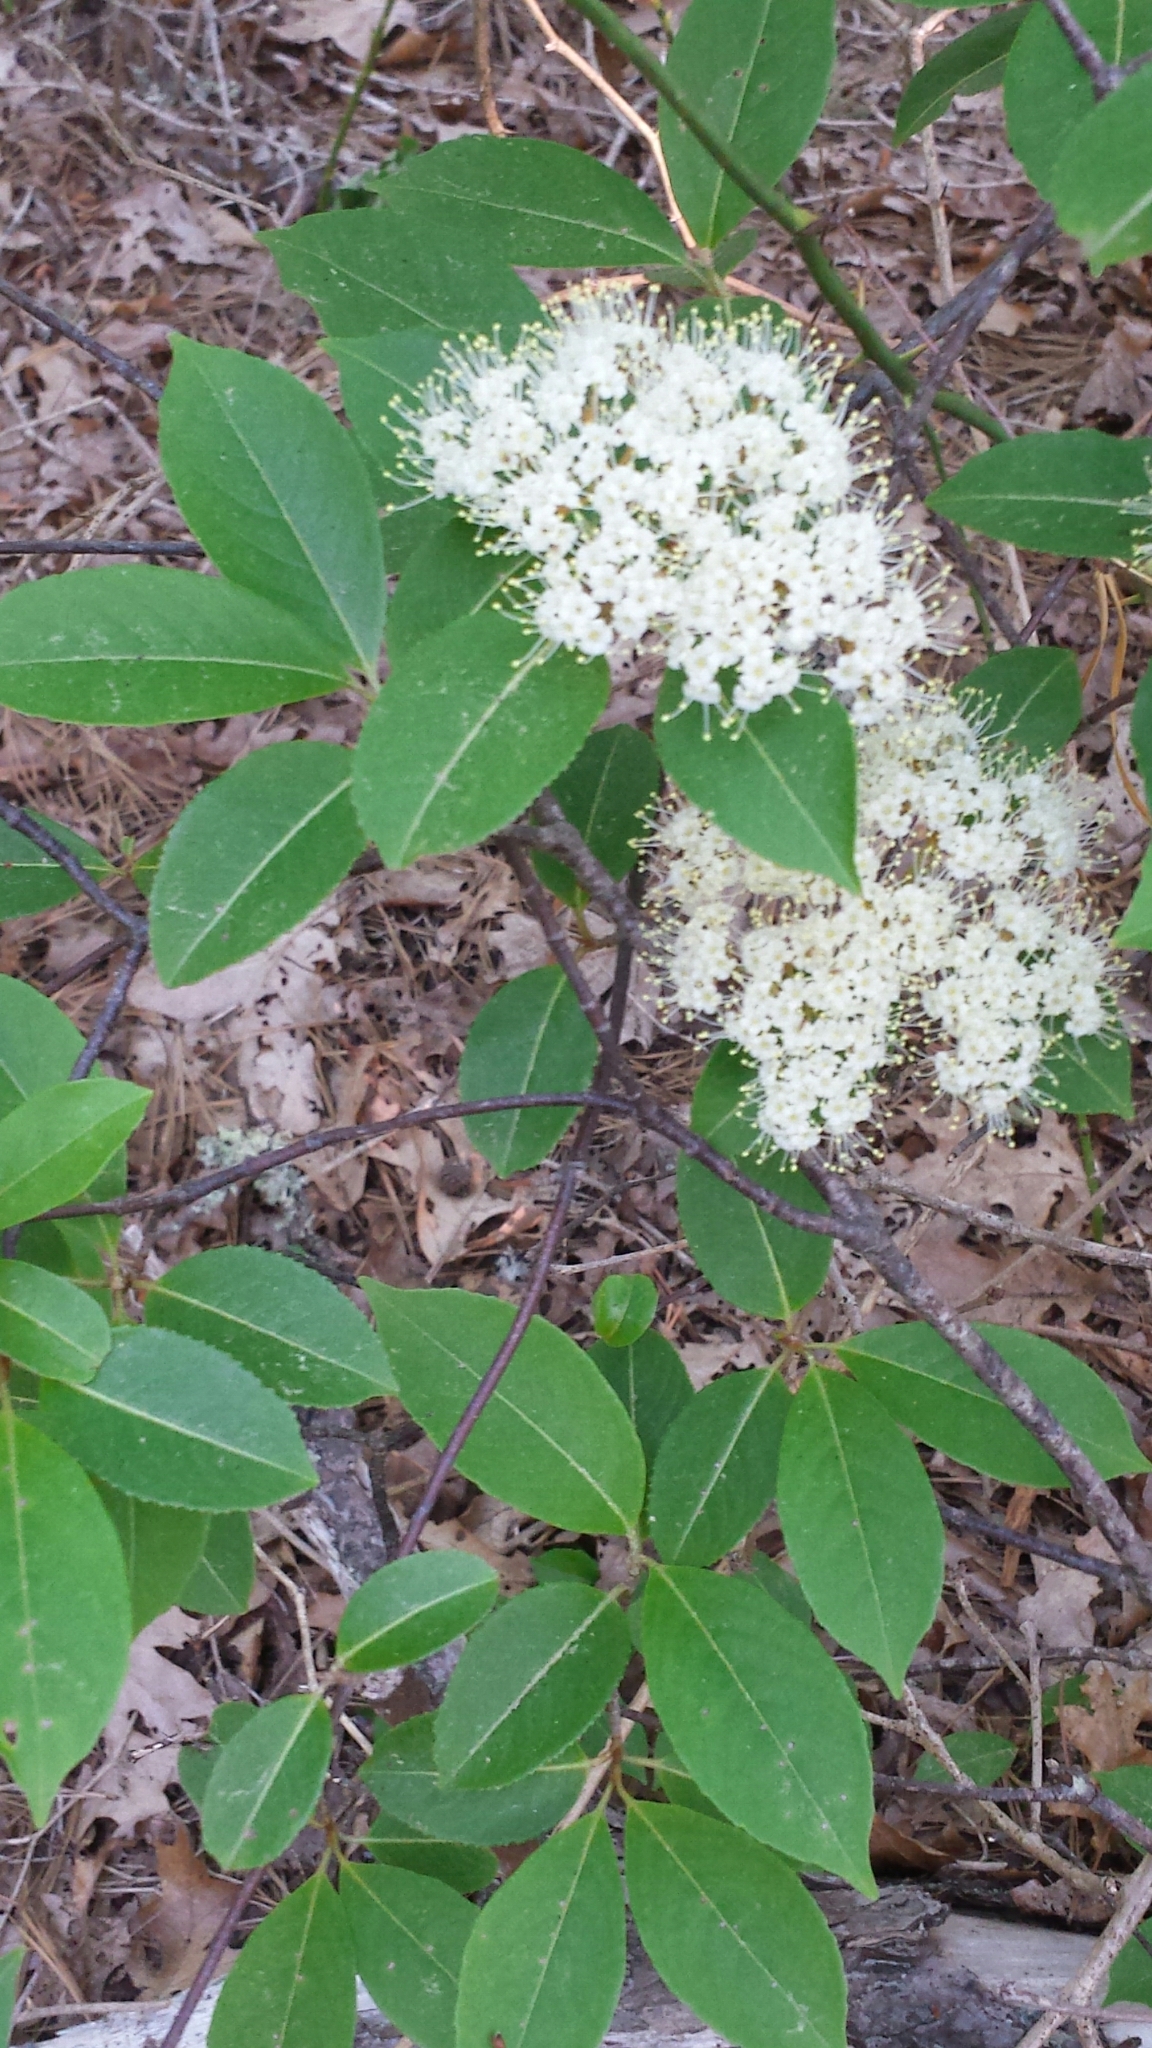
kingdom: Plantae
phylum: Tracheophyta
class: Magnoliopsida
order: Dipsacales
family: Viburnaceae
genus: Viburnum
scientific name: Viburnum cassinoides
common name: Swamp haw
